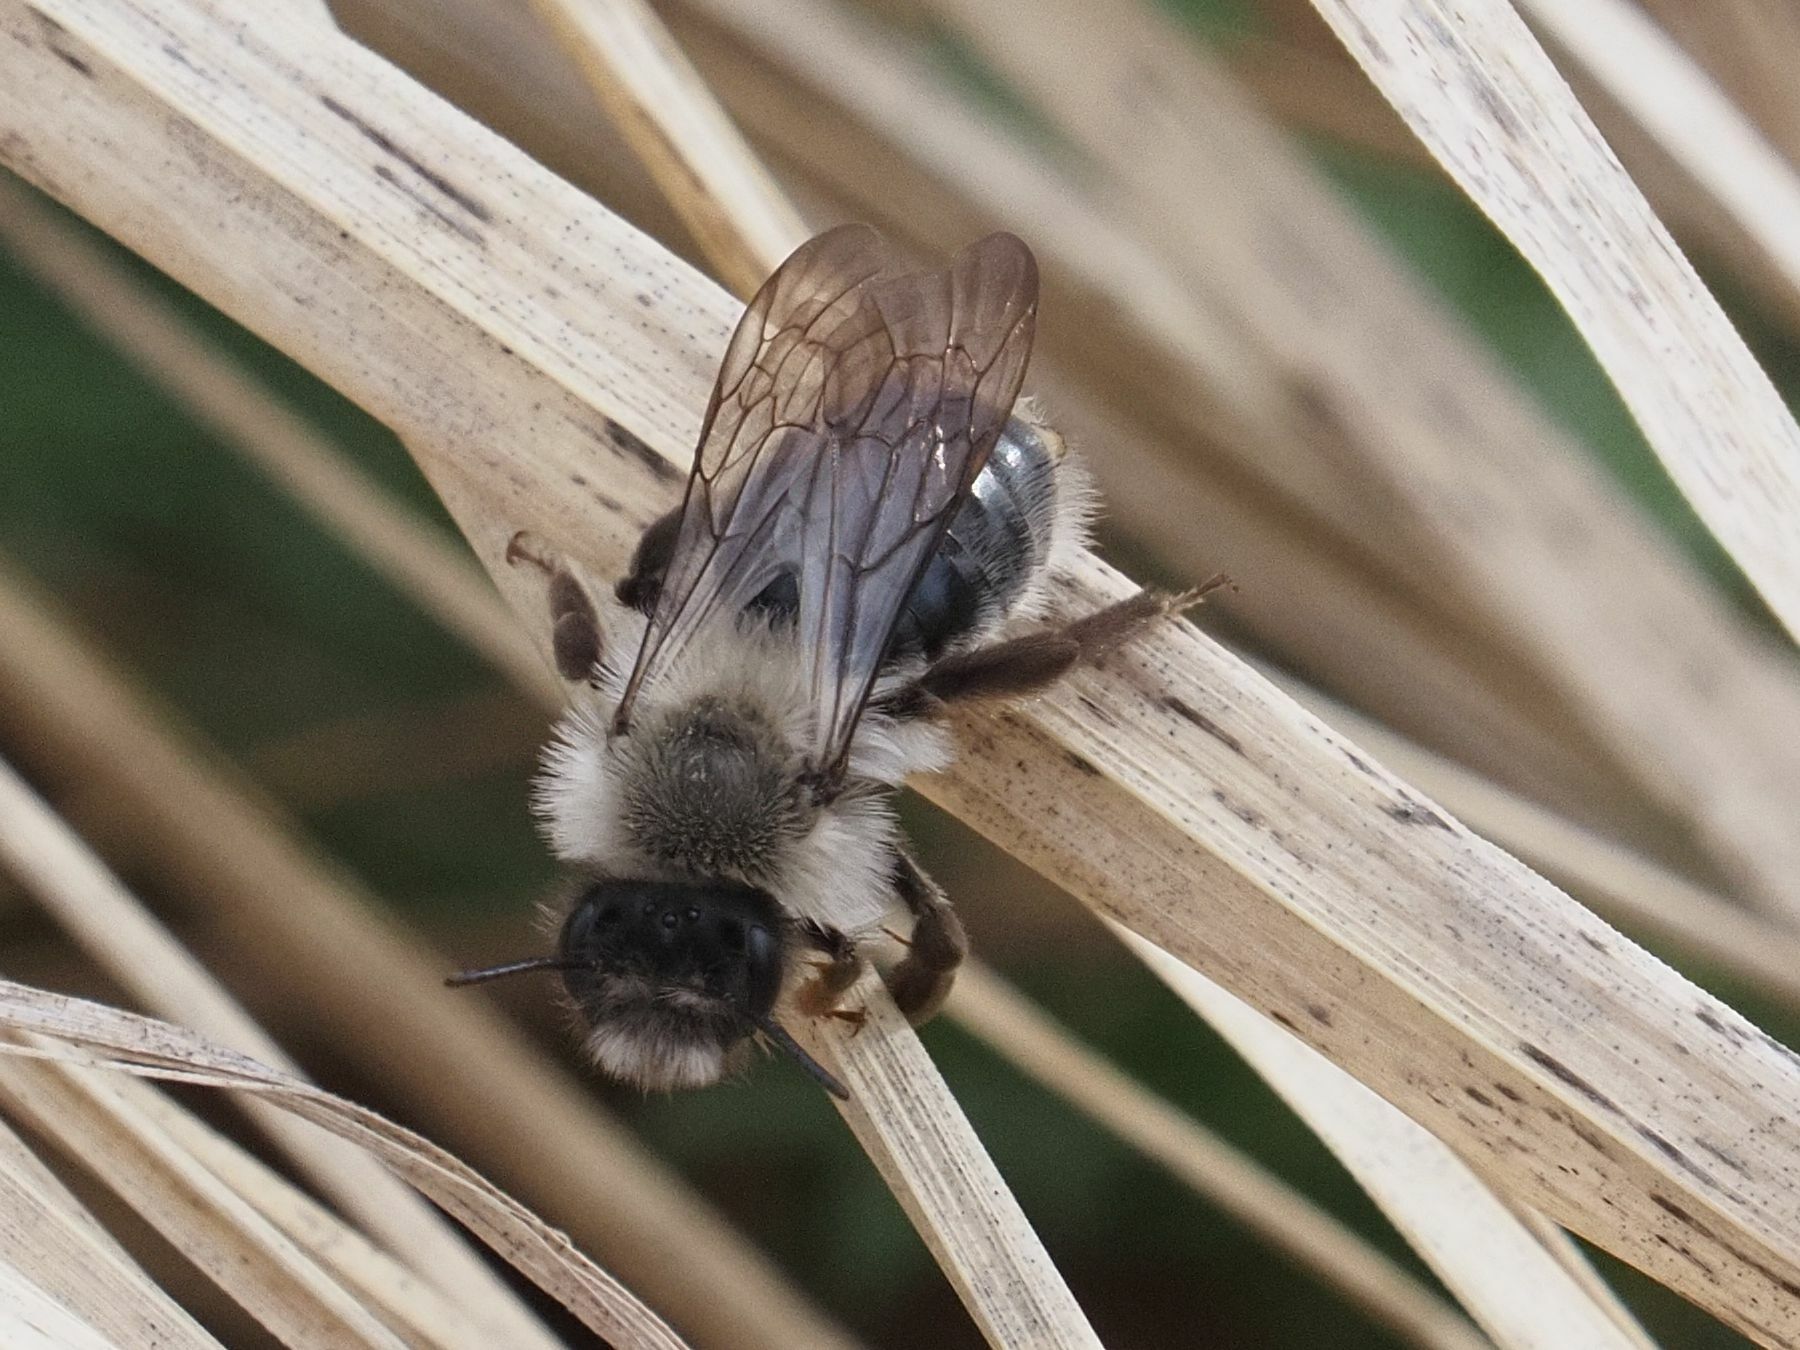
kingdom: Animalia
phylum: Arthropoda
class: Insecta
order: Hymenoptera
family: Andrenidae
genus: Andrena
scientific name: Andrena vaga
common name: Grey-backed mining bee
